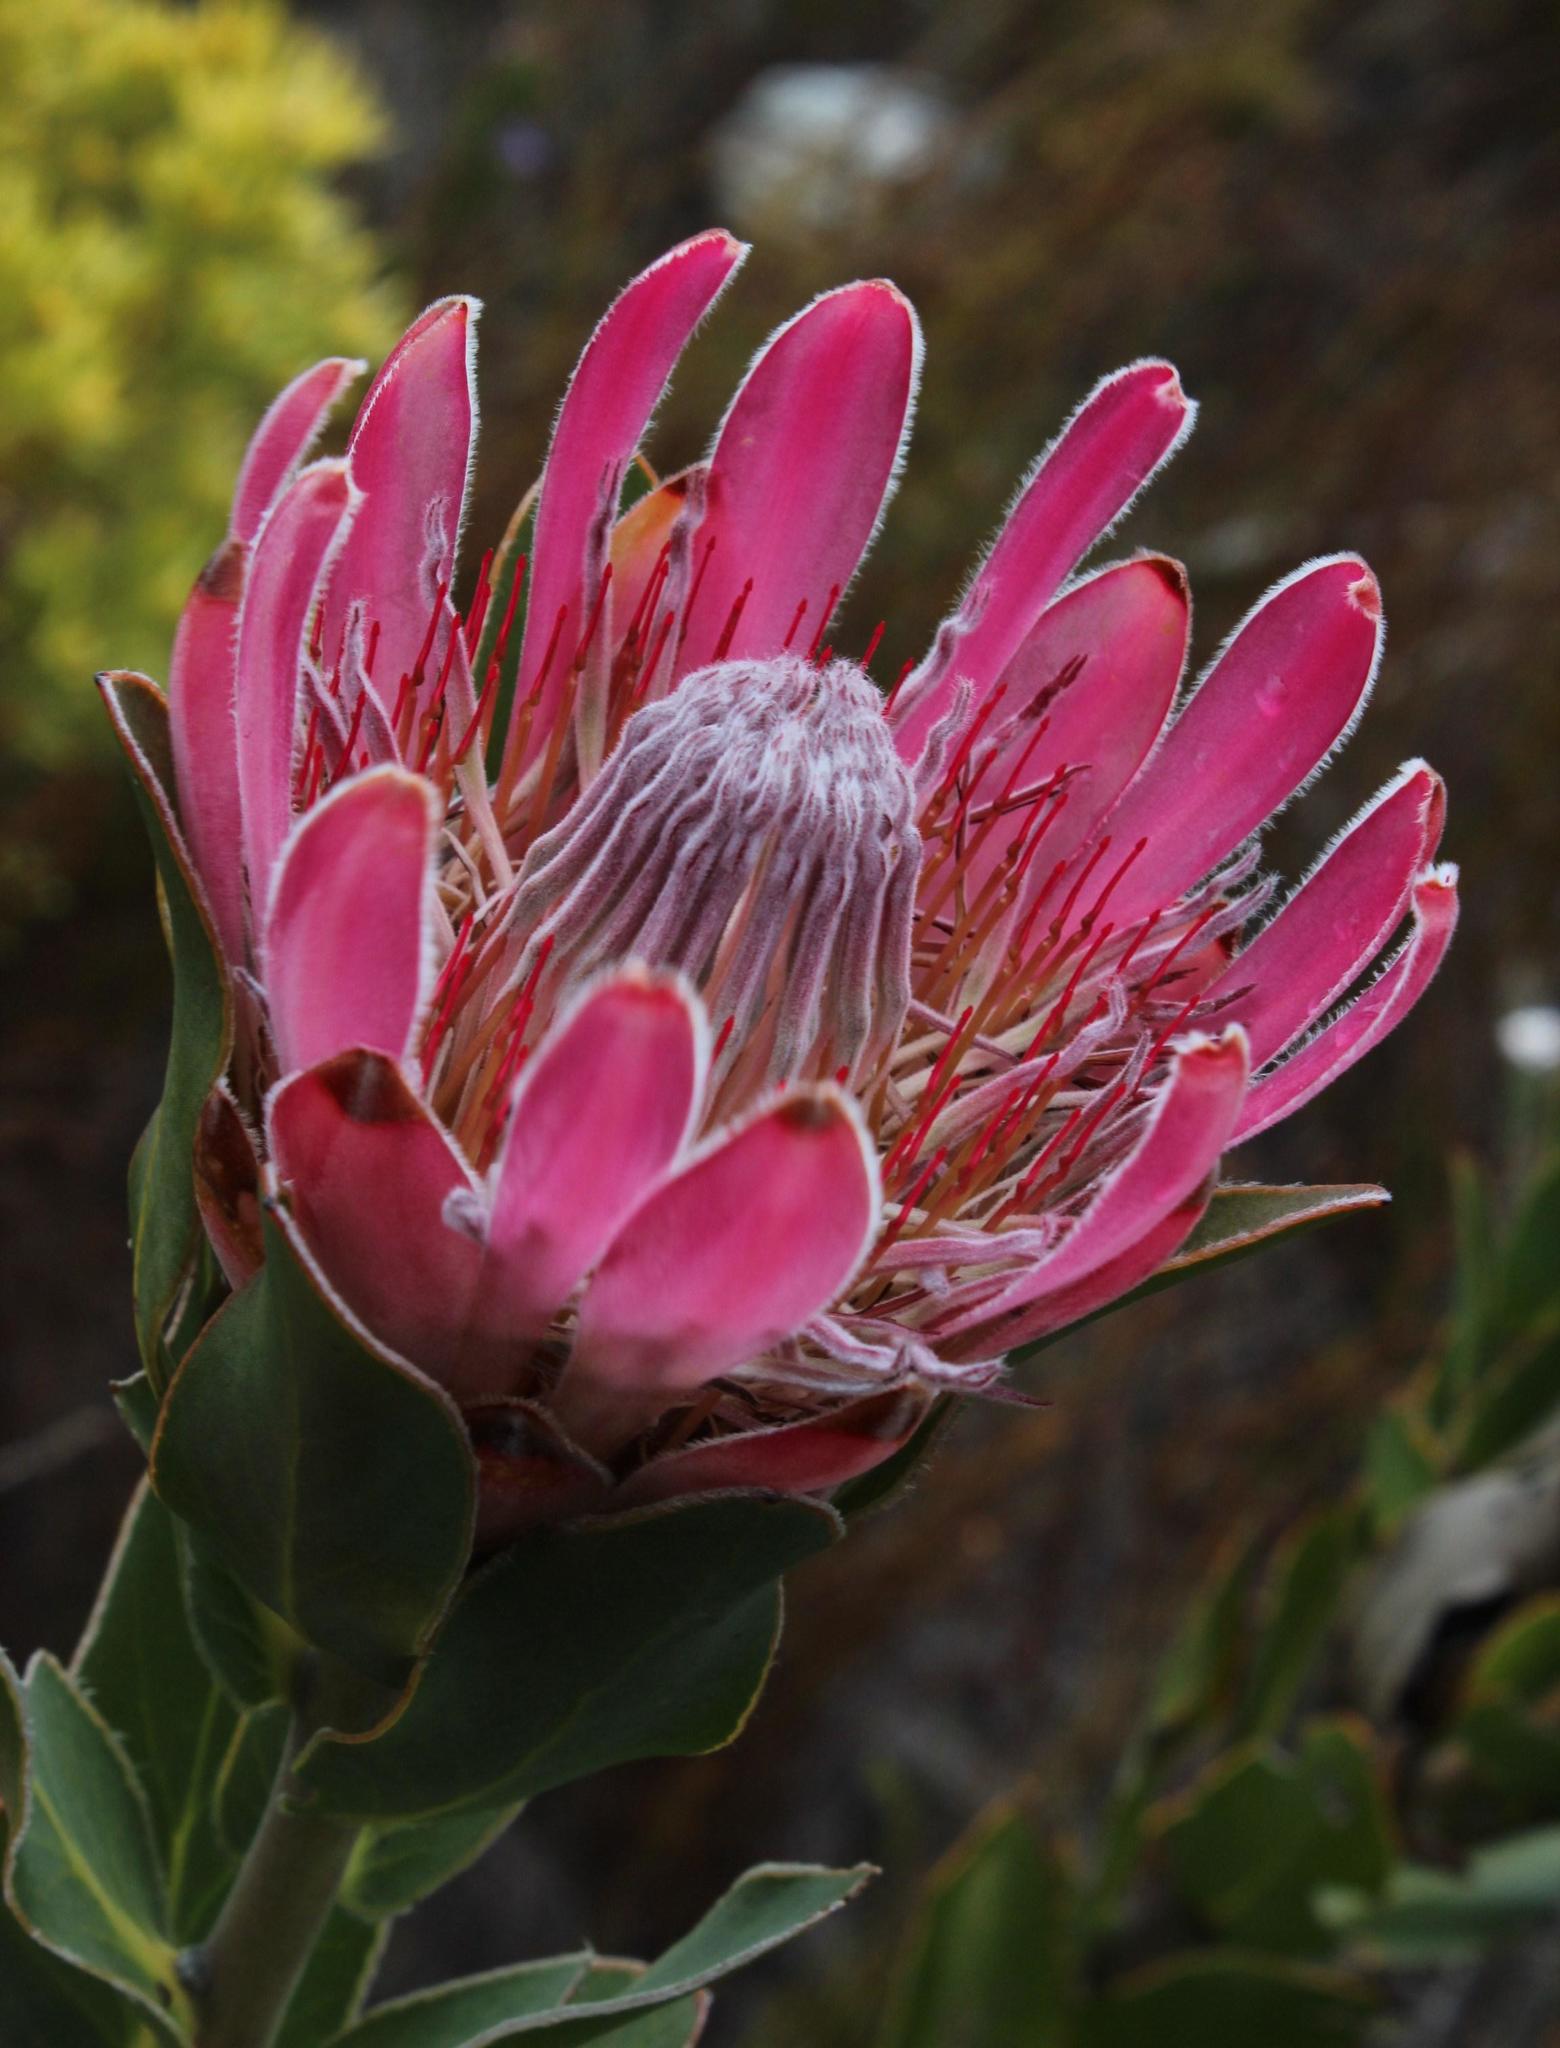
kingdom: Plantae
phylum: Tracheophyta
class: Magnoliopsida
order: Proteales
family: Proteaceae
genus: Protea
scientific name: Protea compacta
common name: Bot river protea
